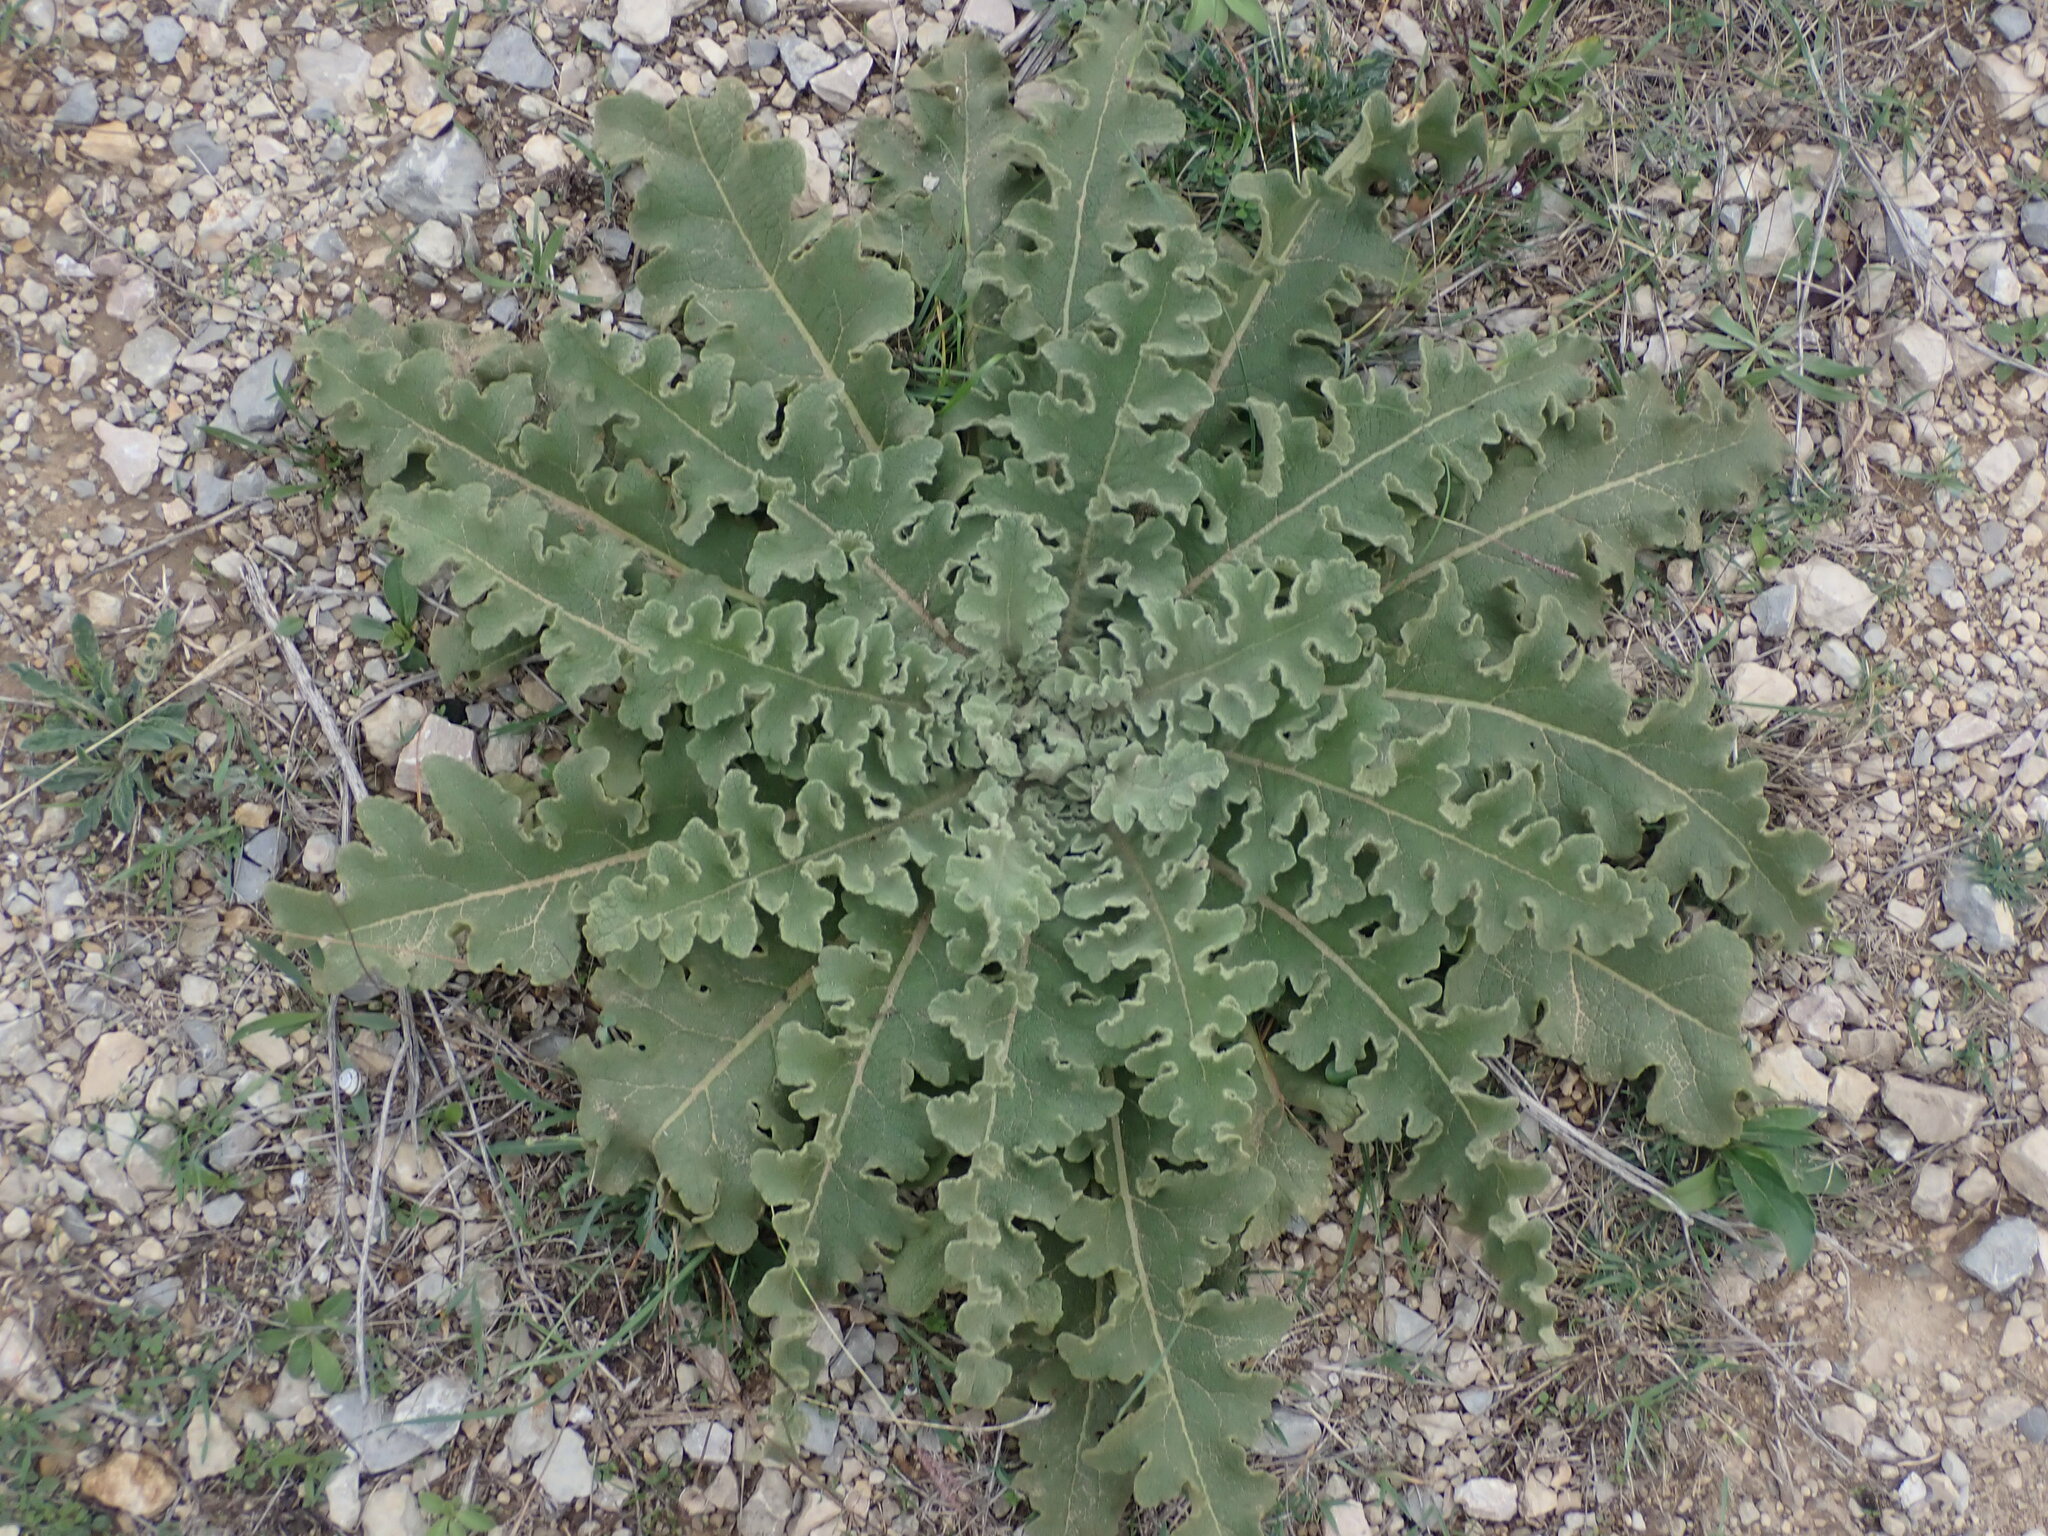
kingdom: Plantae
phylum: Tracheophyta
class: Magnoliopsida
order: Lamiales
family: Scrophulariaceae
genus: Verbascum
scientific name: Verbascum sinuatum
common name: Wavyleaf mullein
